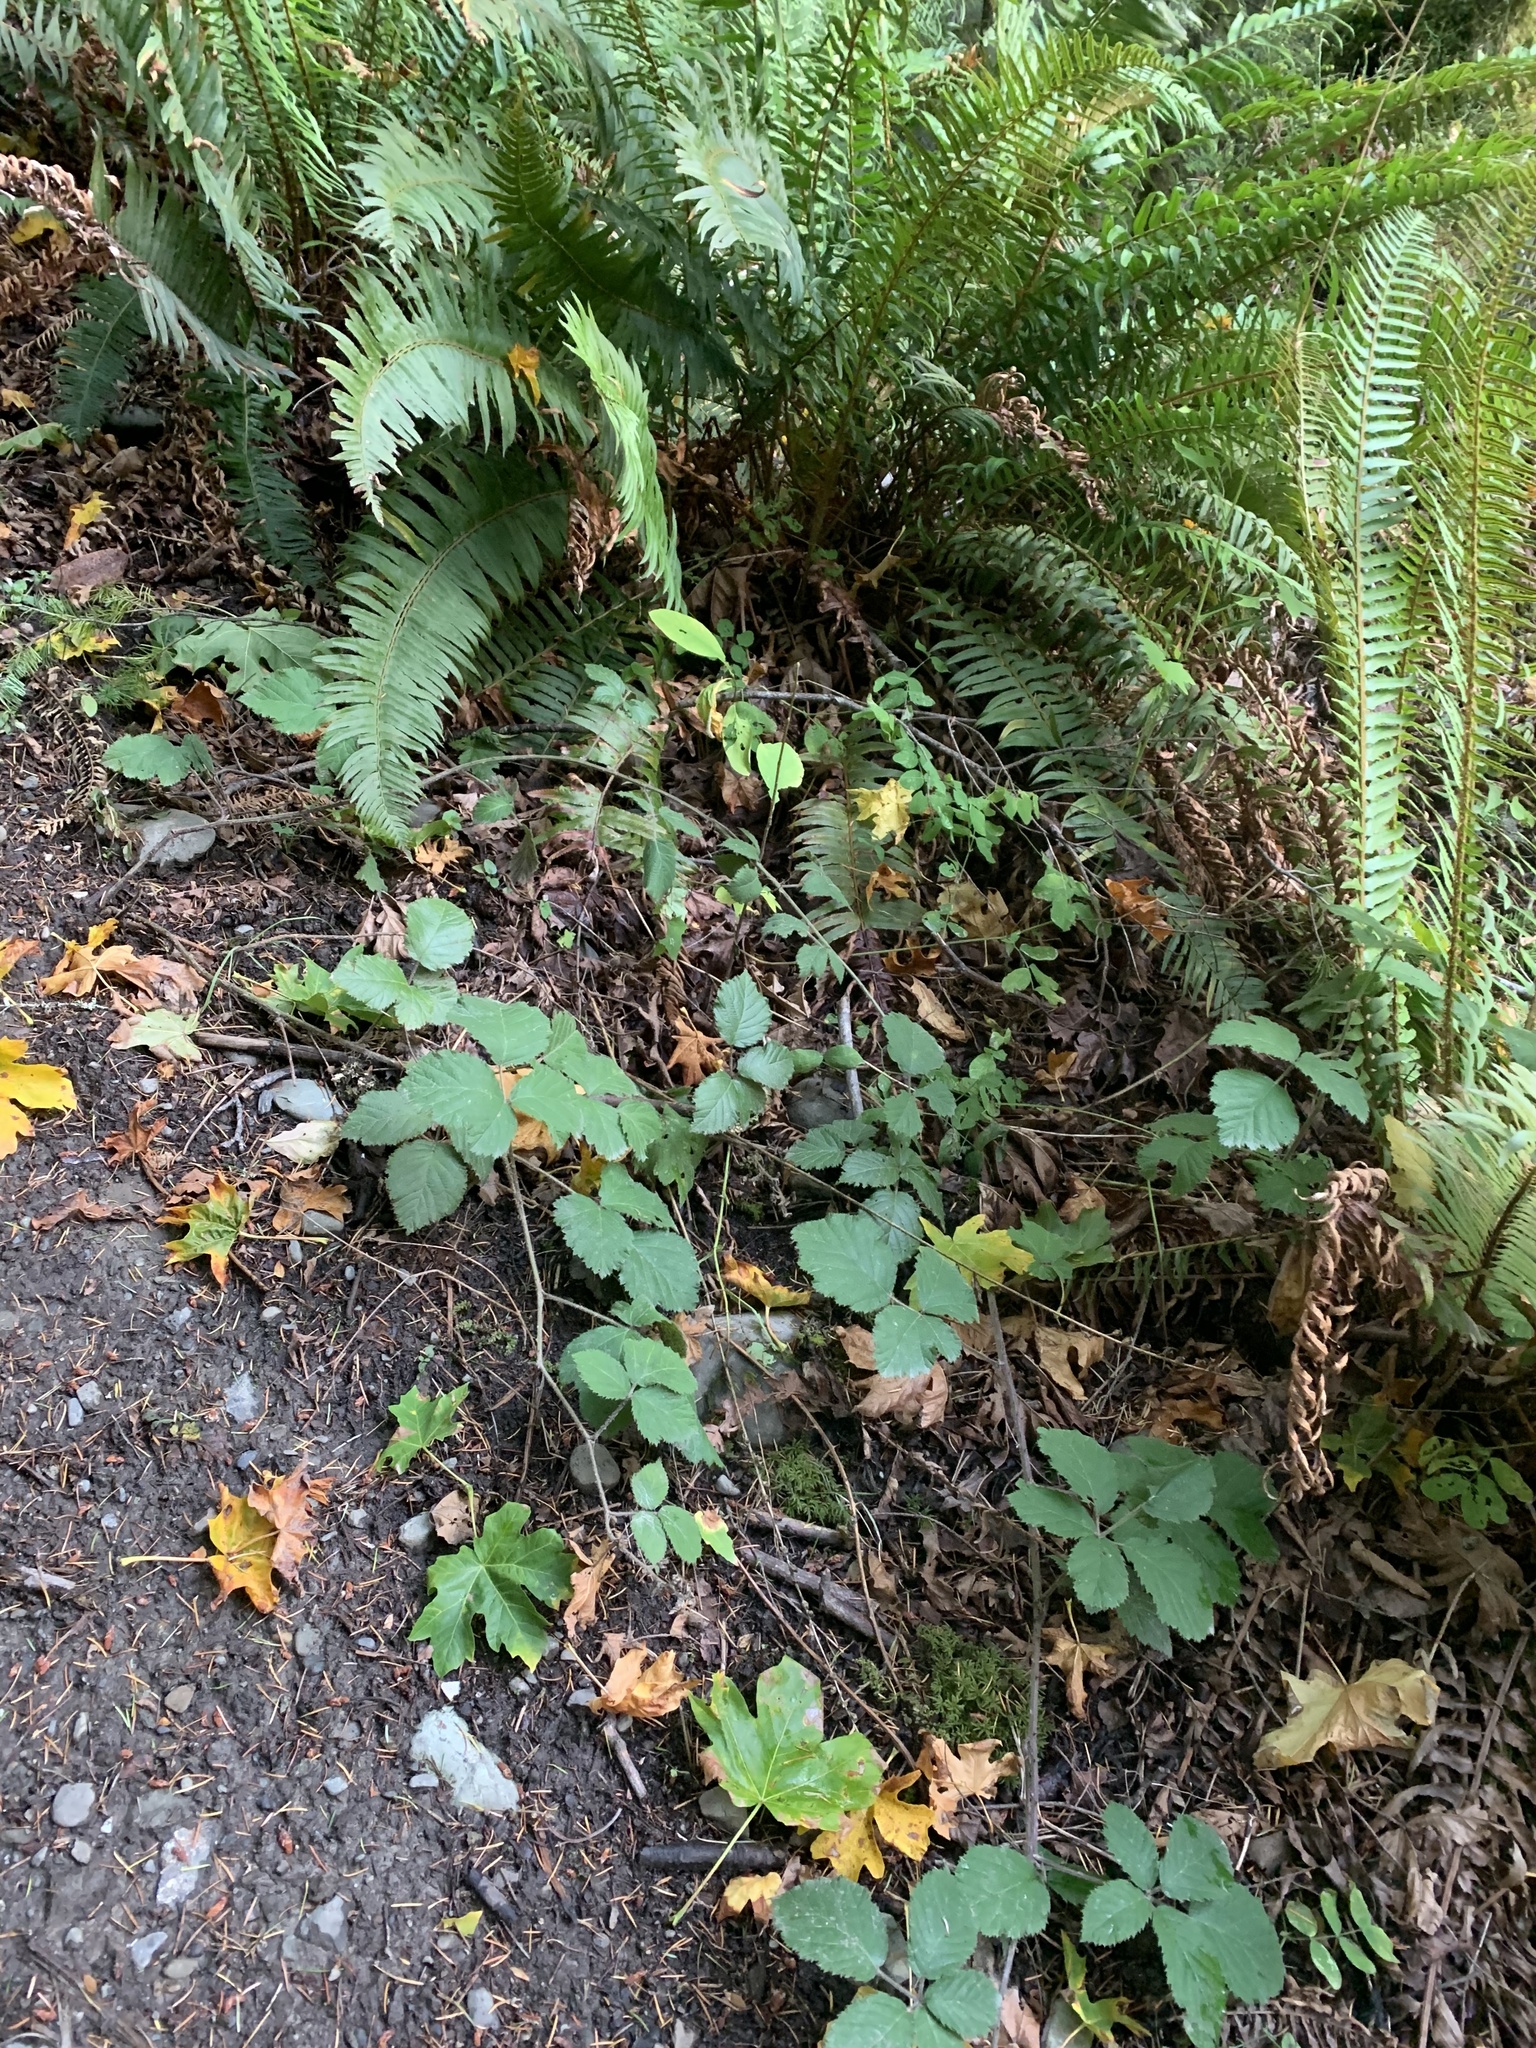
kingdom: Plantae
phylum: Tracheophyta
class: Magnoliopsida
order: Rosales
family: Rosaceae
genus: Rubus
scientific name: Rubus vestitus
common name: European blackberry
